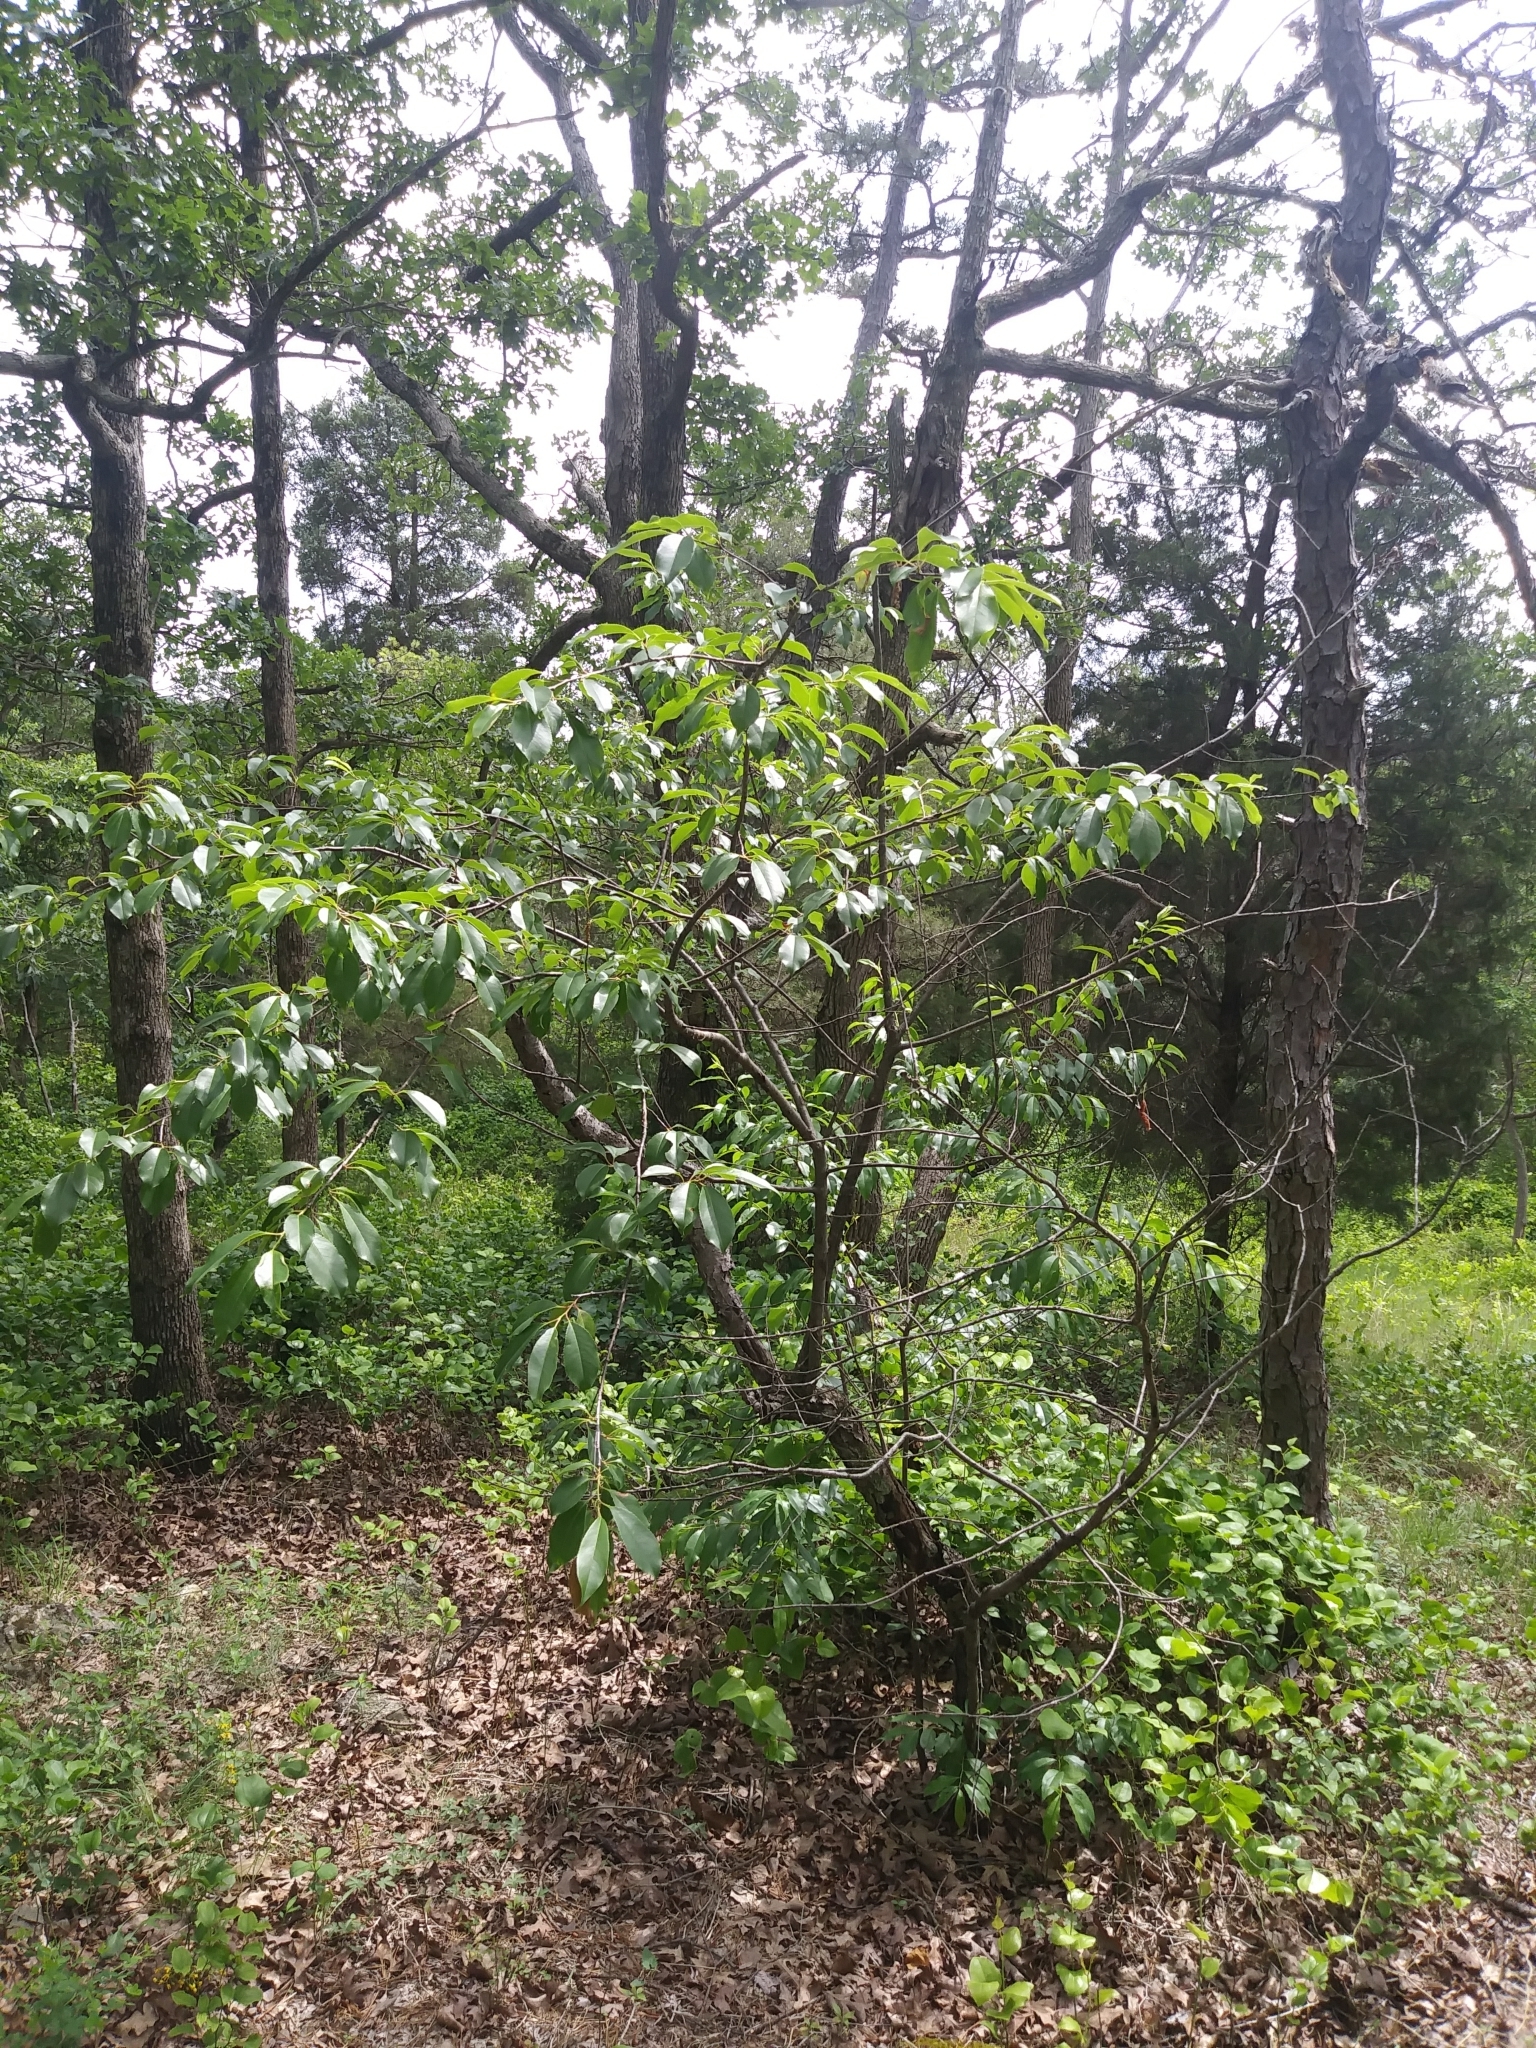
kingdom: Plantae
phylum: Tracheophyta
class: Magnoliopsida
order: Rosales
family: Rosaceae
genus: Prunus
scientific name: Prunus serotina
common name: Black cherry
